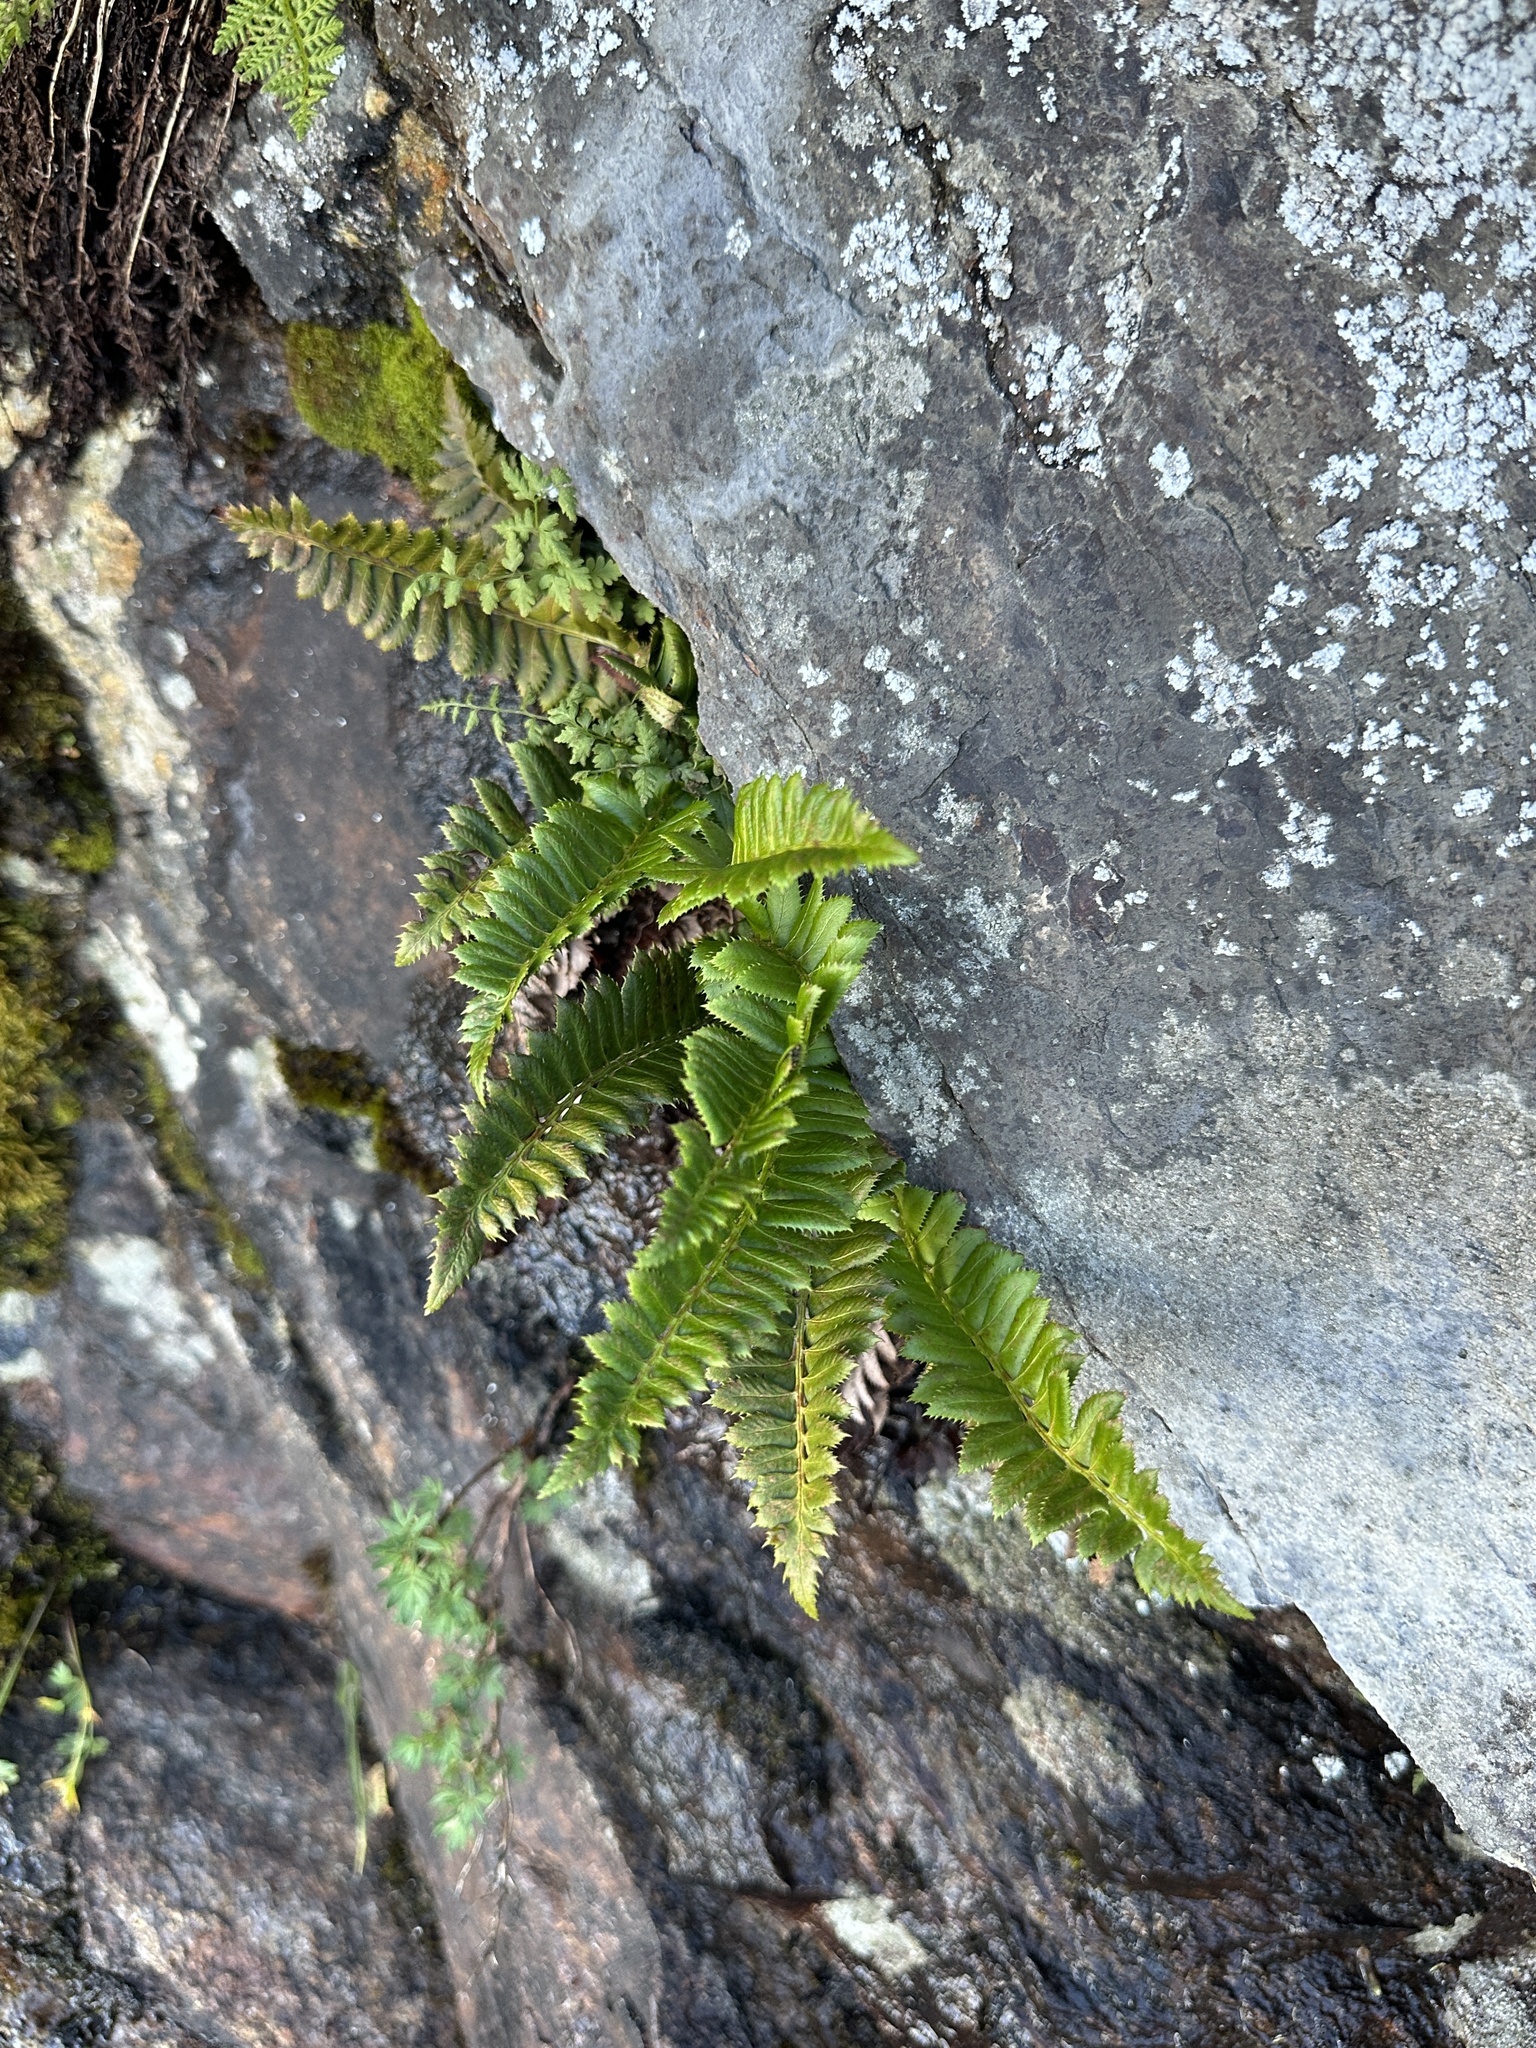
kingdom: Plantae
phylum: Tracheophyta
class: Polypodiopsida
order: Polypodiales
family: Dryopteridaceae
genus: Polystichum
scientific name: Polystichum lonchitis
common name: Holly fern
